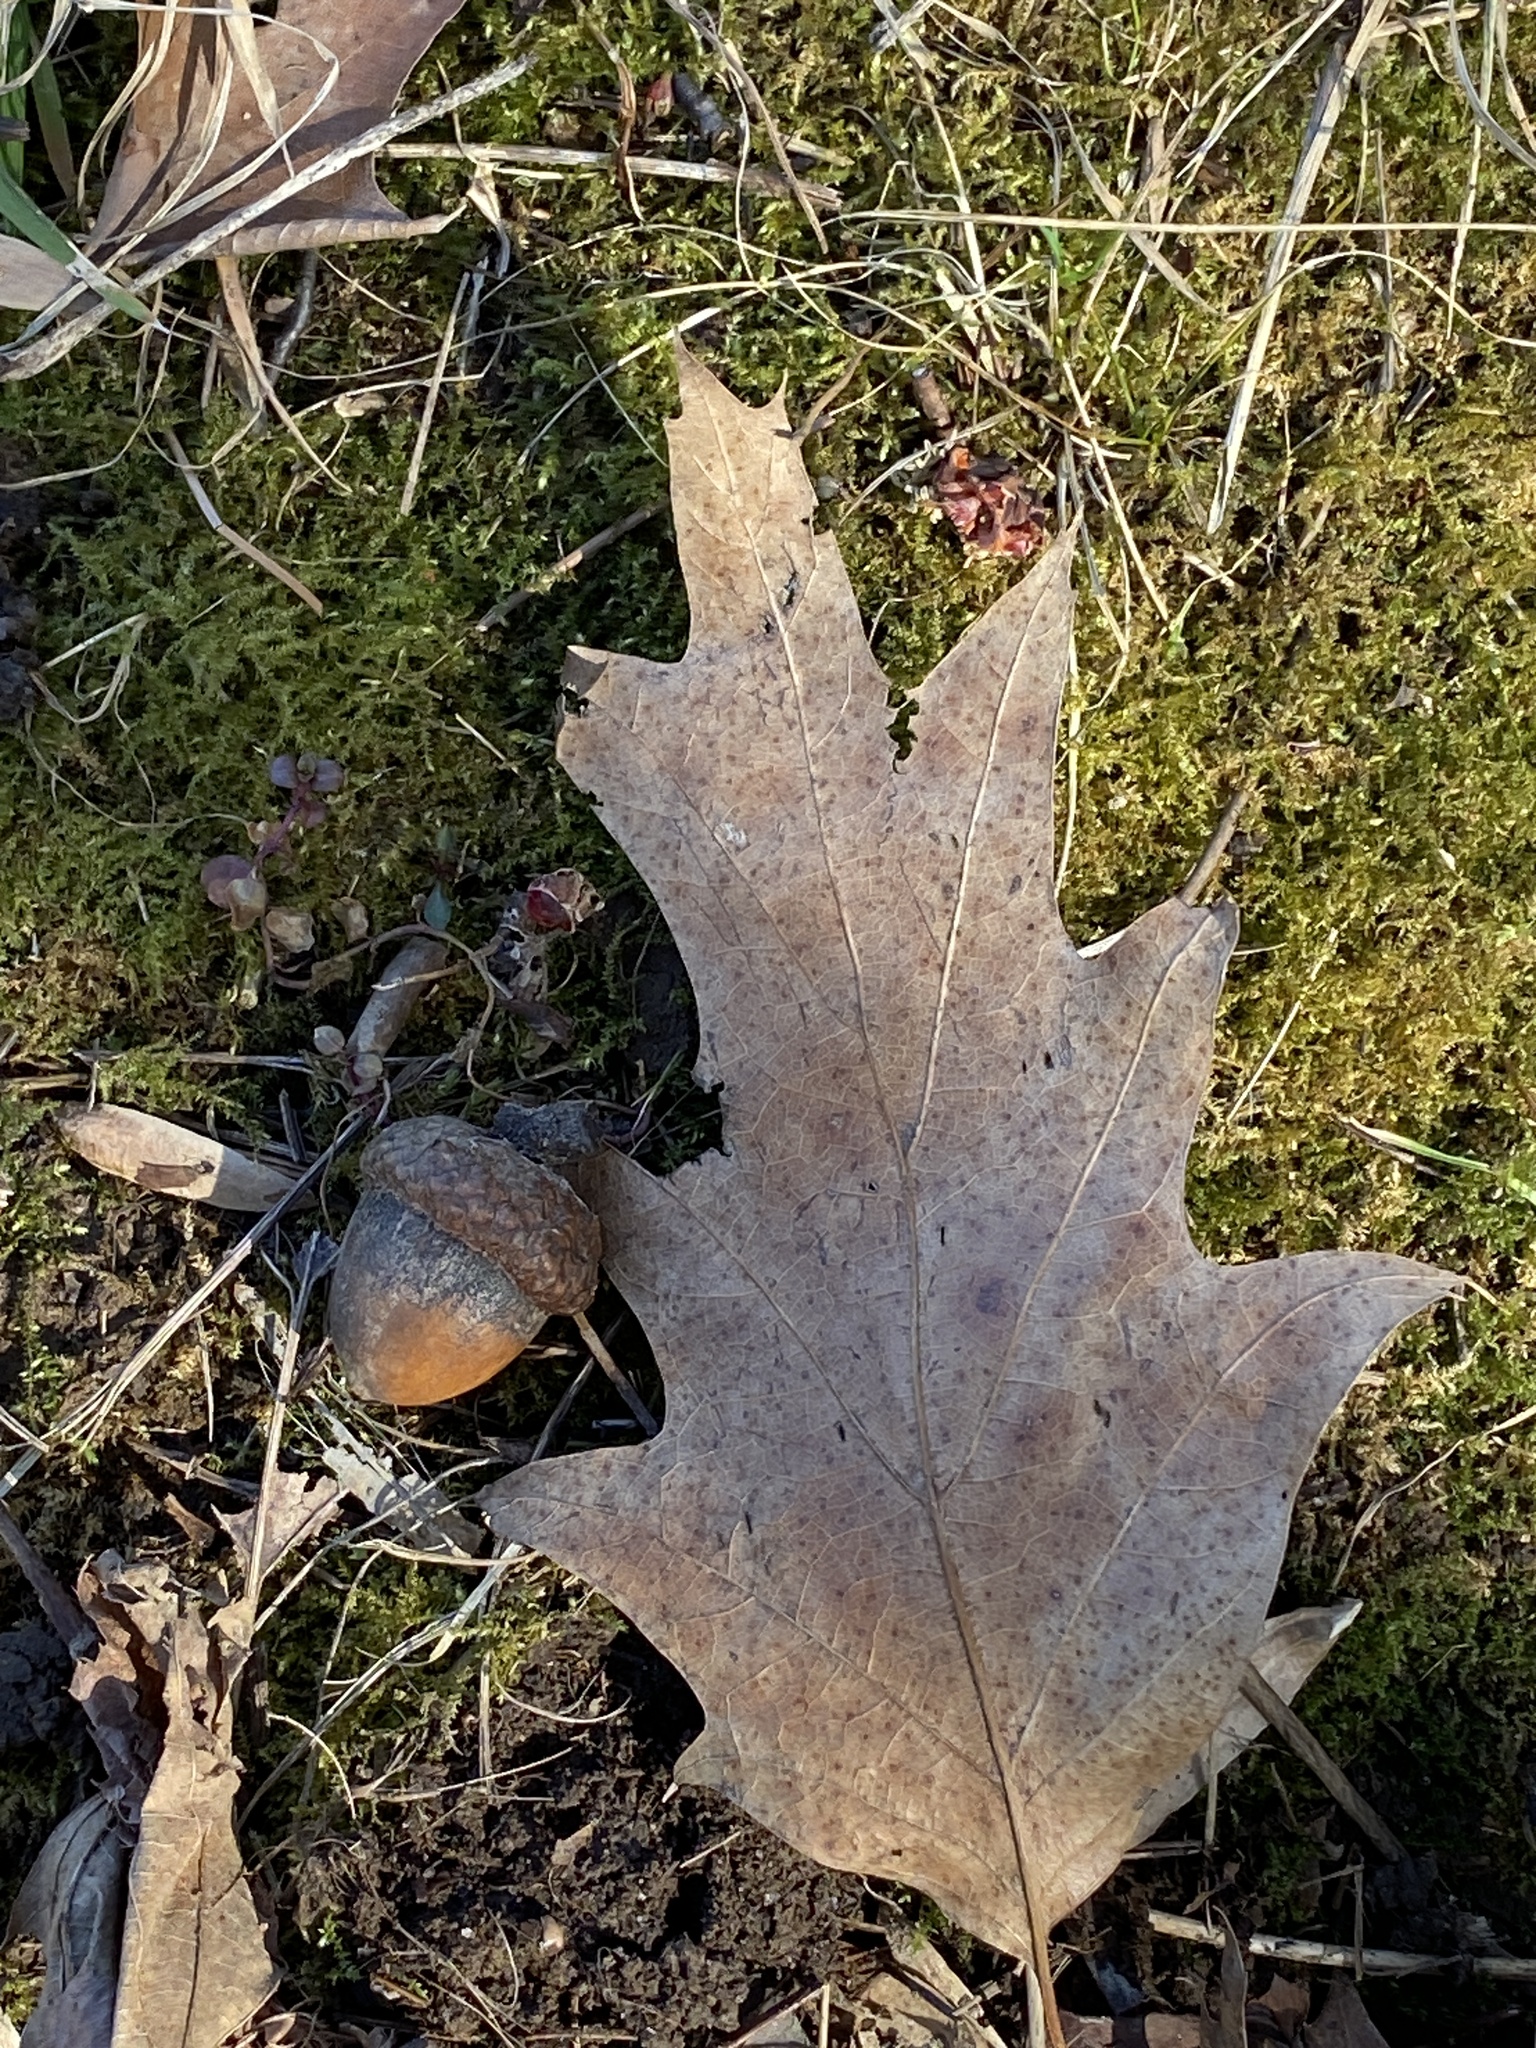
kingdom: Plantae
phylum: Tracheophyta
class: Magnoliopsida
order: Fagales
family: Fagaceae
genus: Quercus
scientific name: Quercus rubra
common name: Red oak
